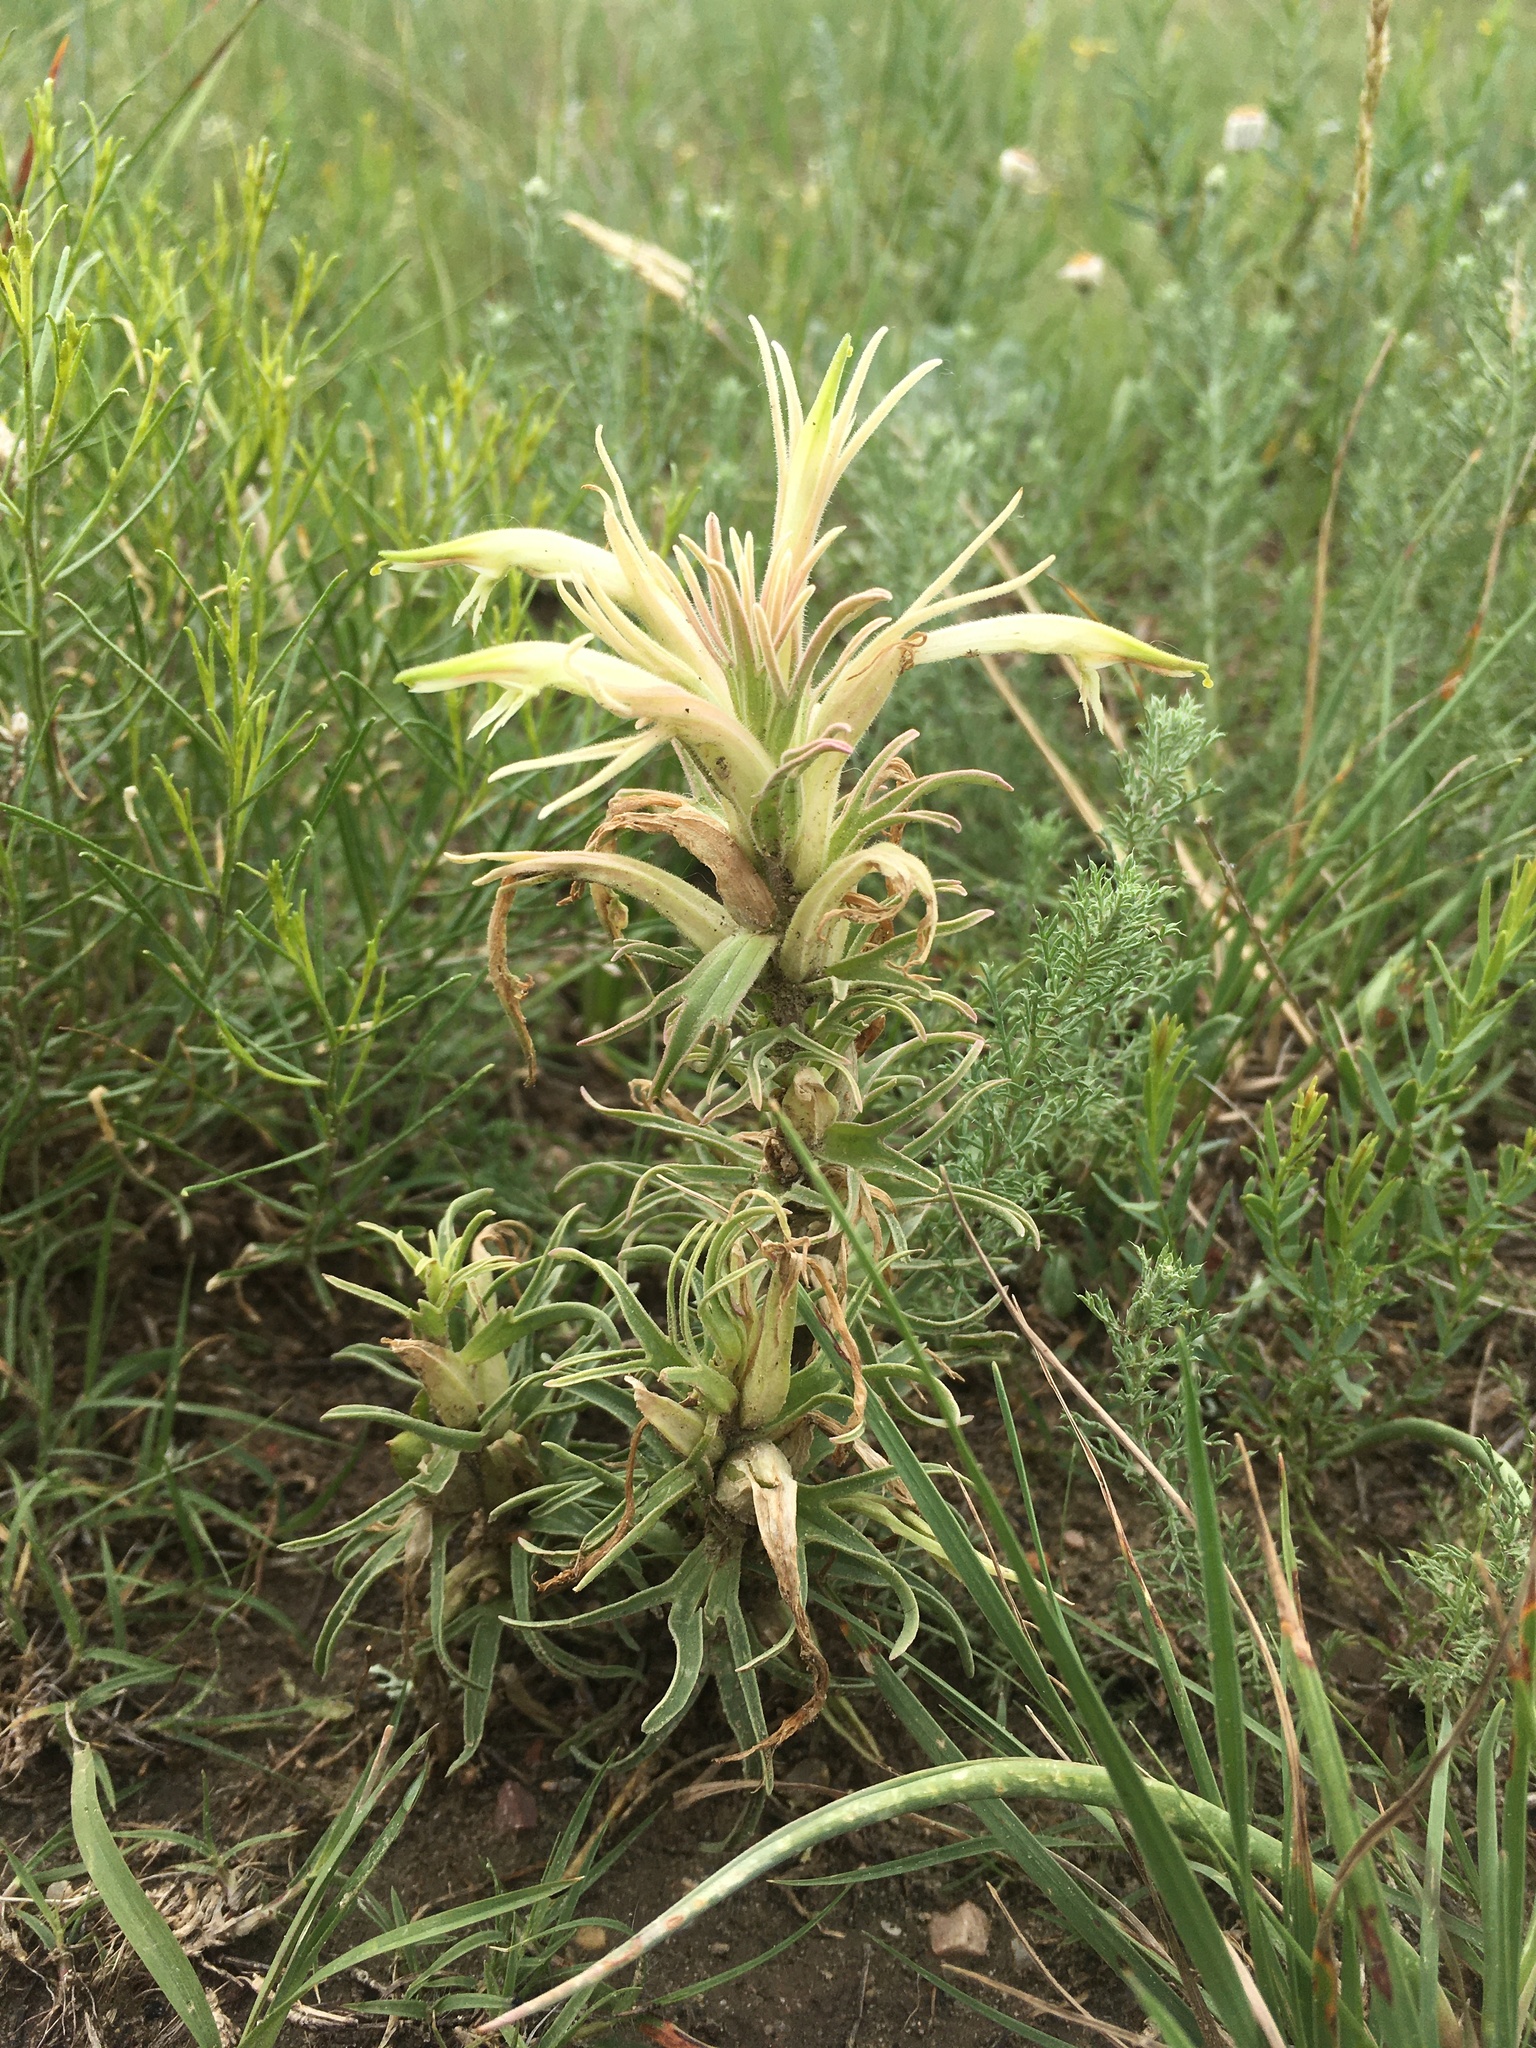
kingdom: Plantae
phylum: Tracheophyta
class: Magnoliopsida
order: Lamiales
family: Orobanchaceae
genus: Castilleja
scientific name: Castilleja sessiliflora
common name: Downy paintbrush
